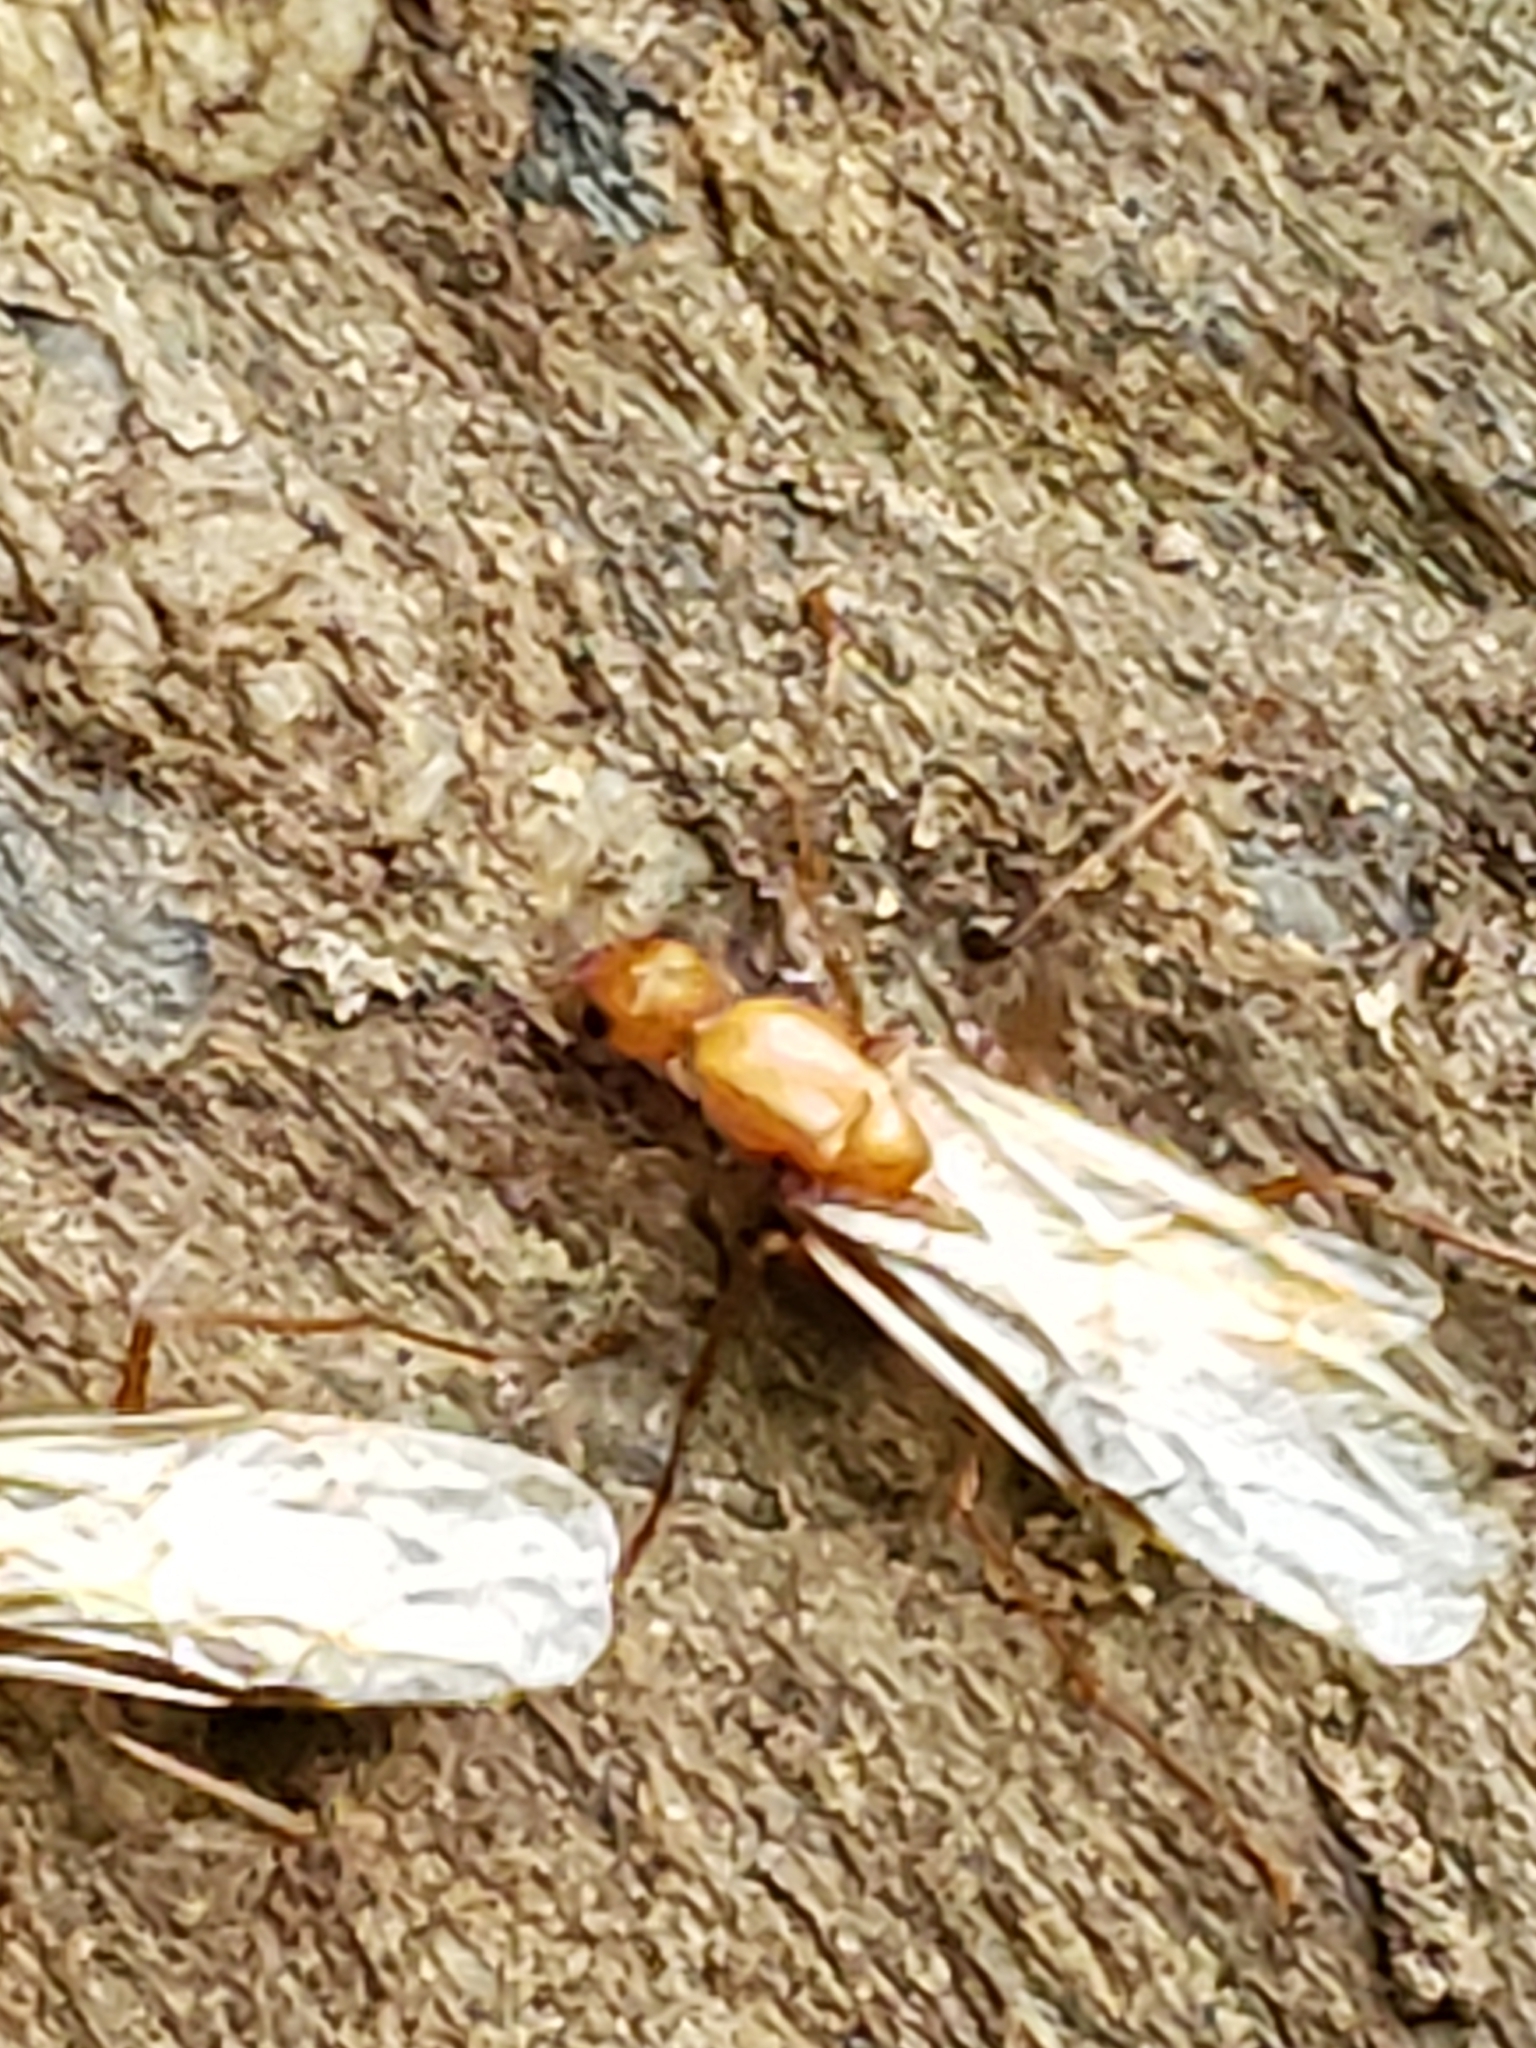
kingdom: Animalia
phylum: Arthropoda
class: Insecta
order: Hymenoptera
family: Formicidae
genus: Camponotus
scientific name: Camponotus castaneus
